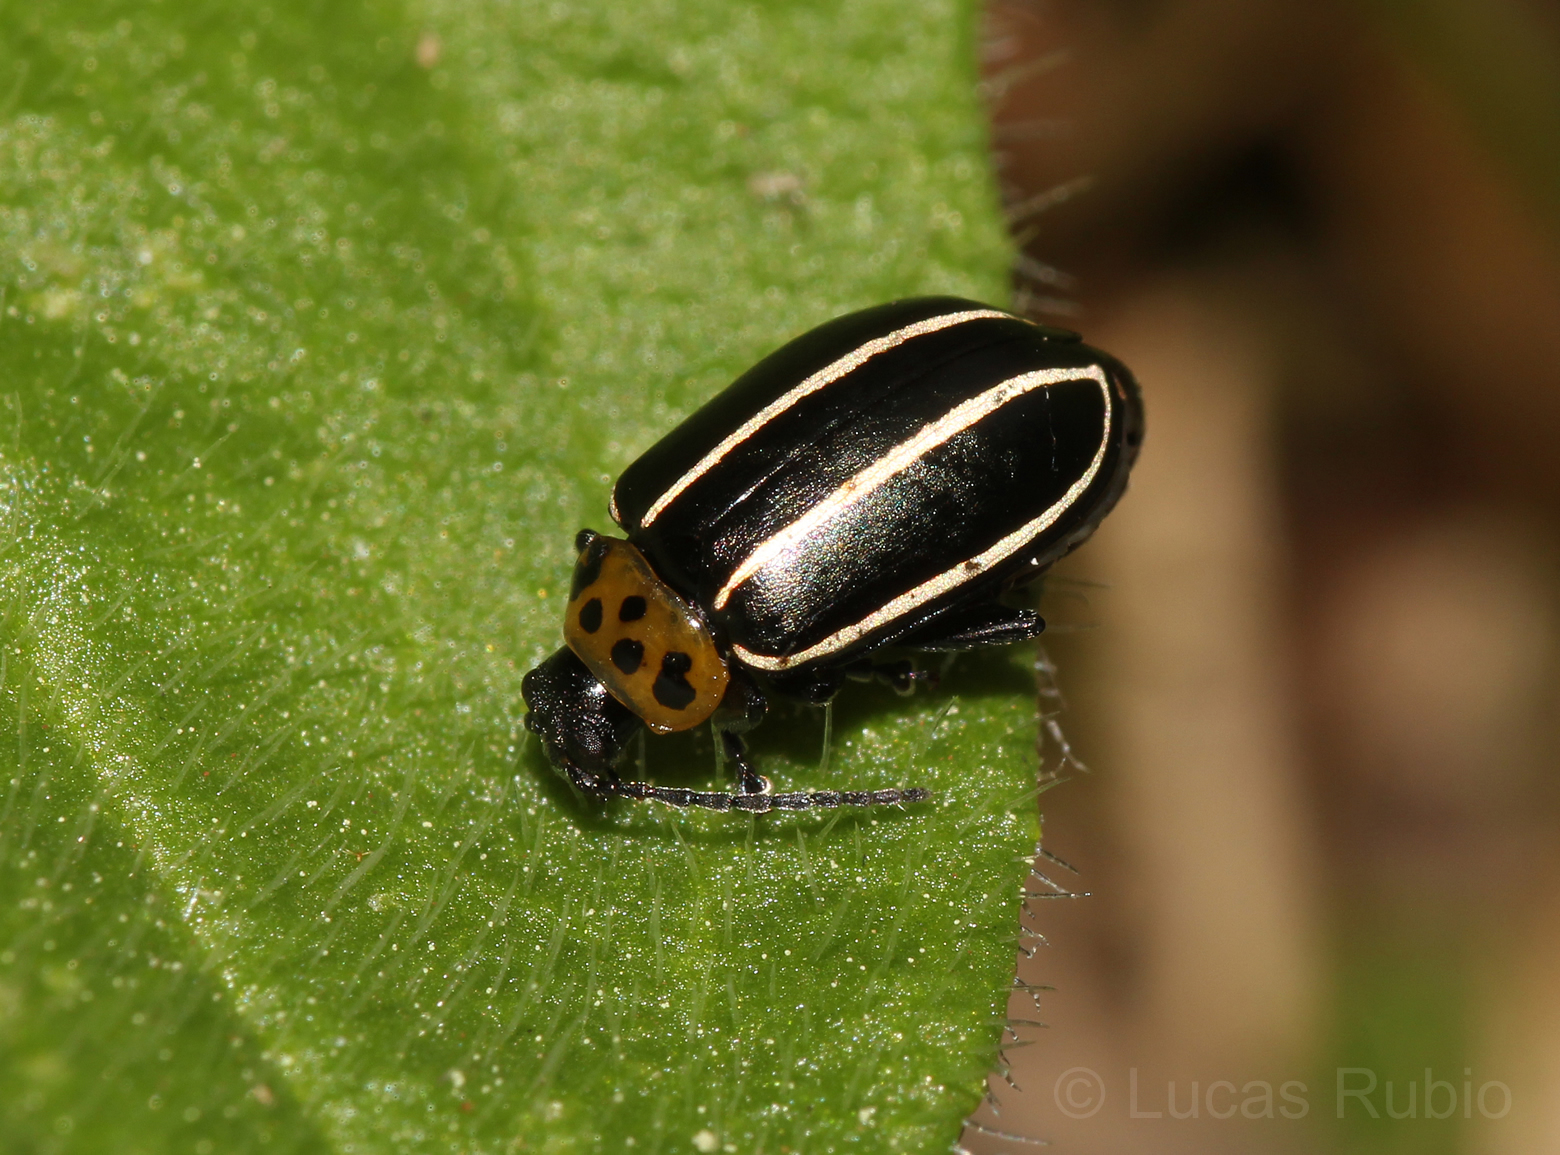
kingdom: Animalia
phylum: Arthropoda
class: Insecta
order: Coleoptera
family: Chrysomelidae
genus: Disonycha
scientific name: Disonycha conjugata
